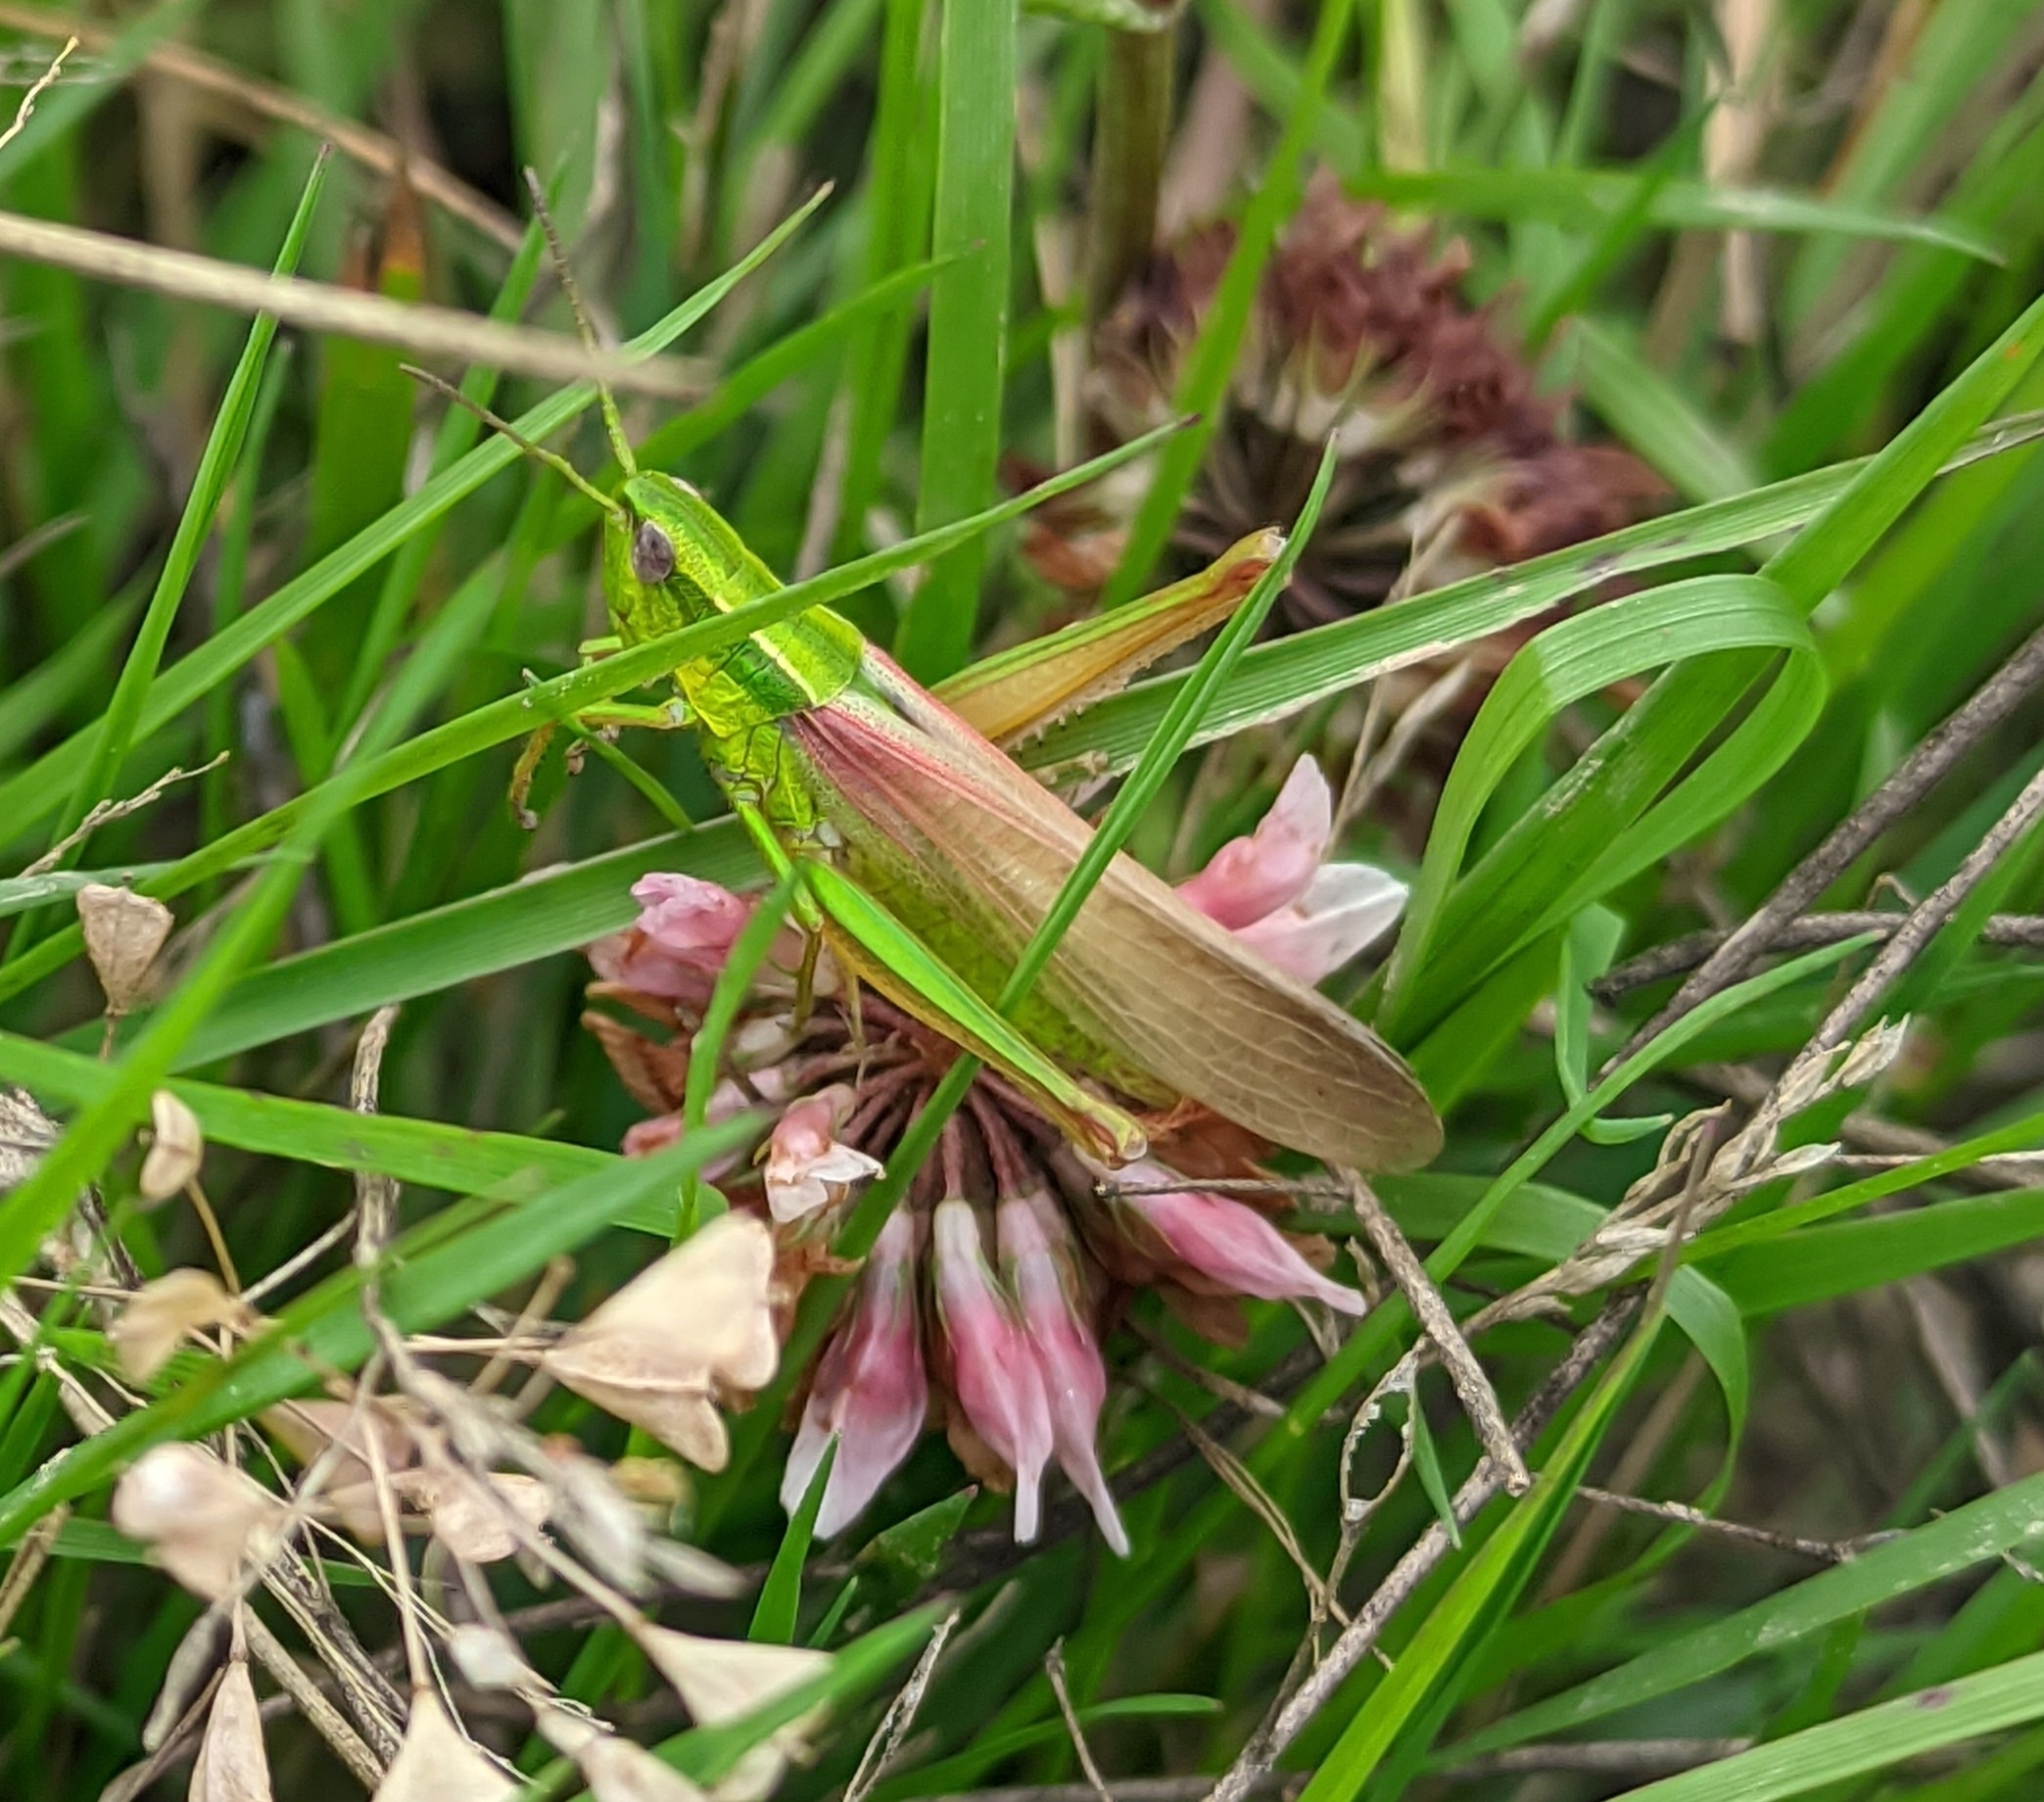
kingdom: Animalia
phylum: Arthropoda
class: Insecta
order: Orthoptera
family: Acrididae
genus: Euthystira
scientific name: Euthystira brachyptera
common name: Small gold grasshopper
